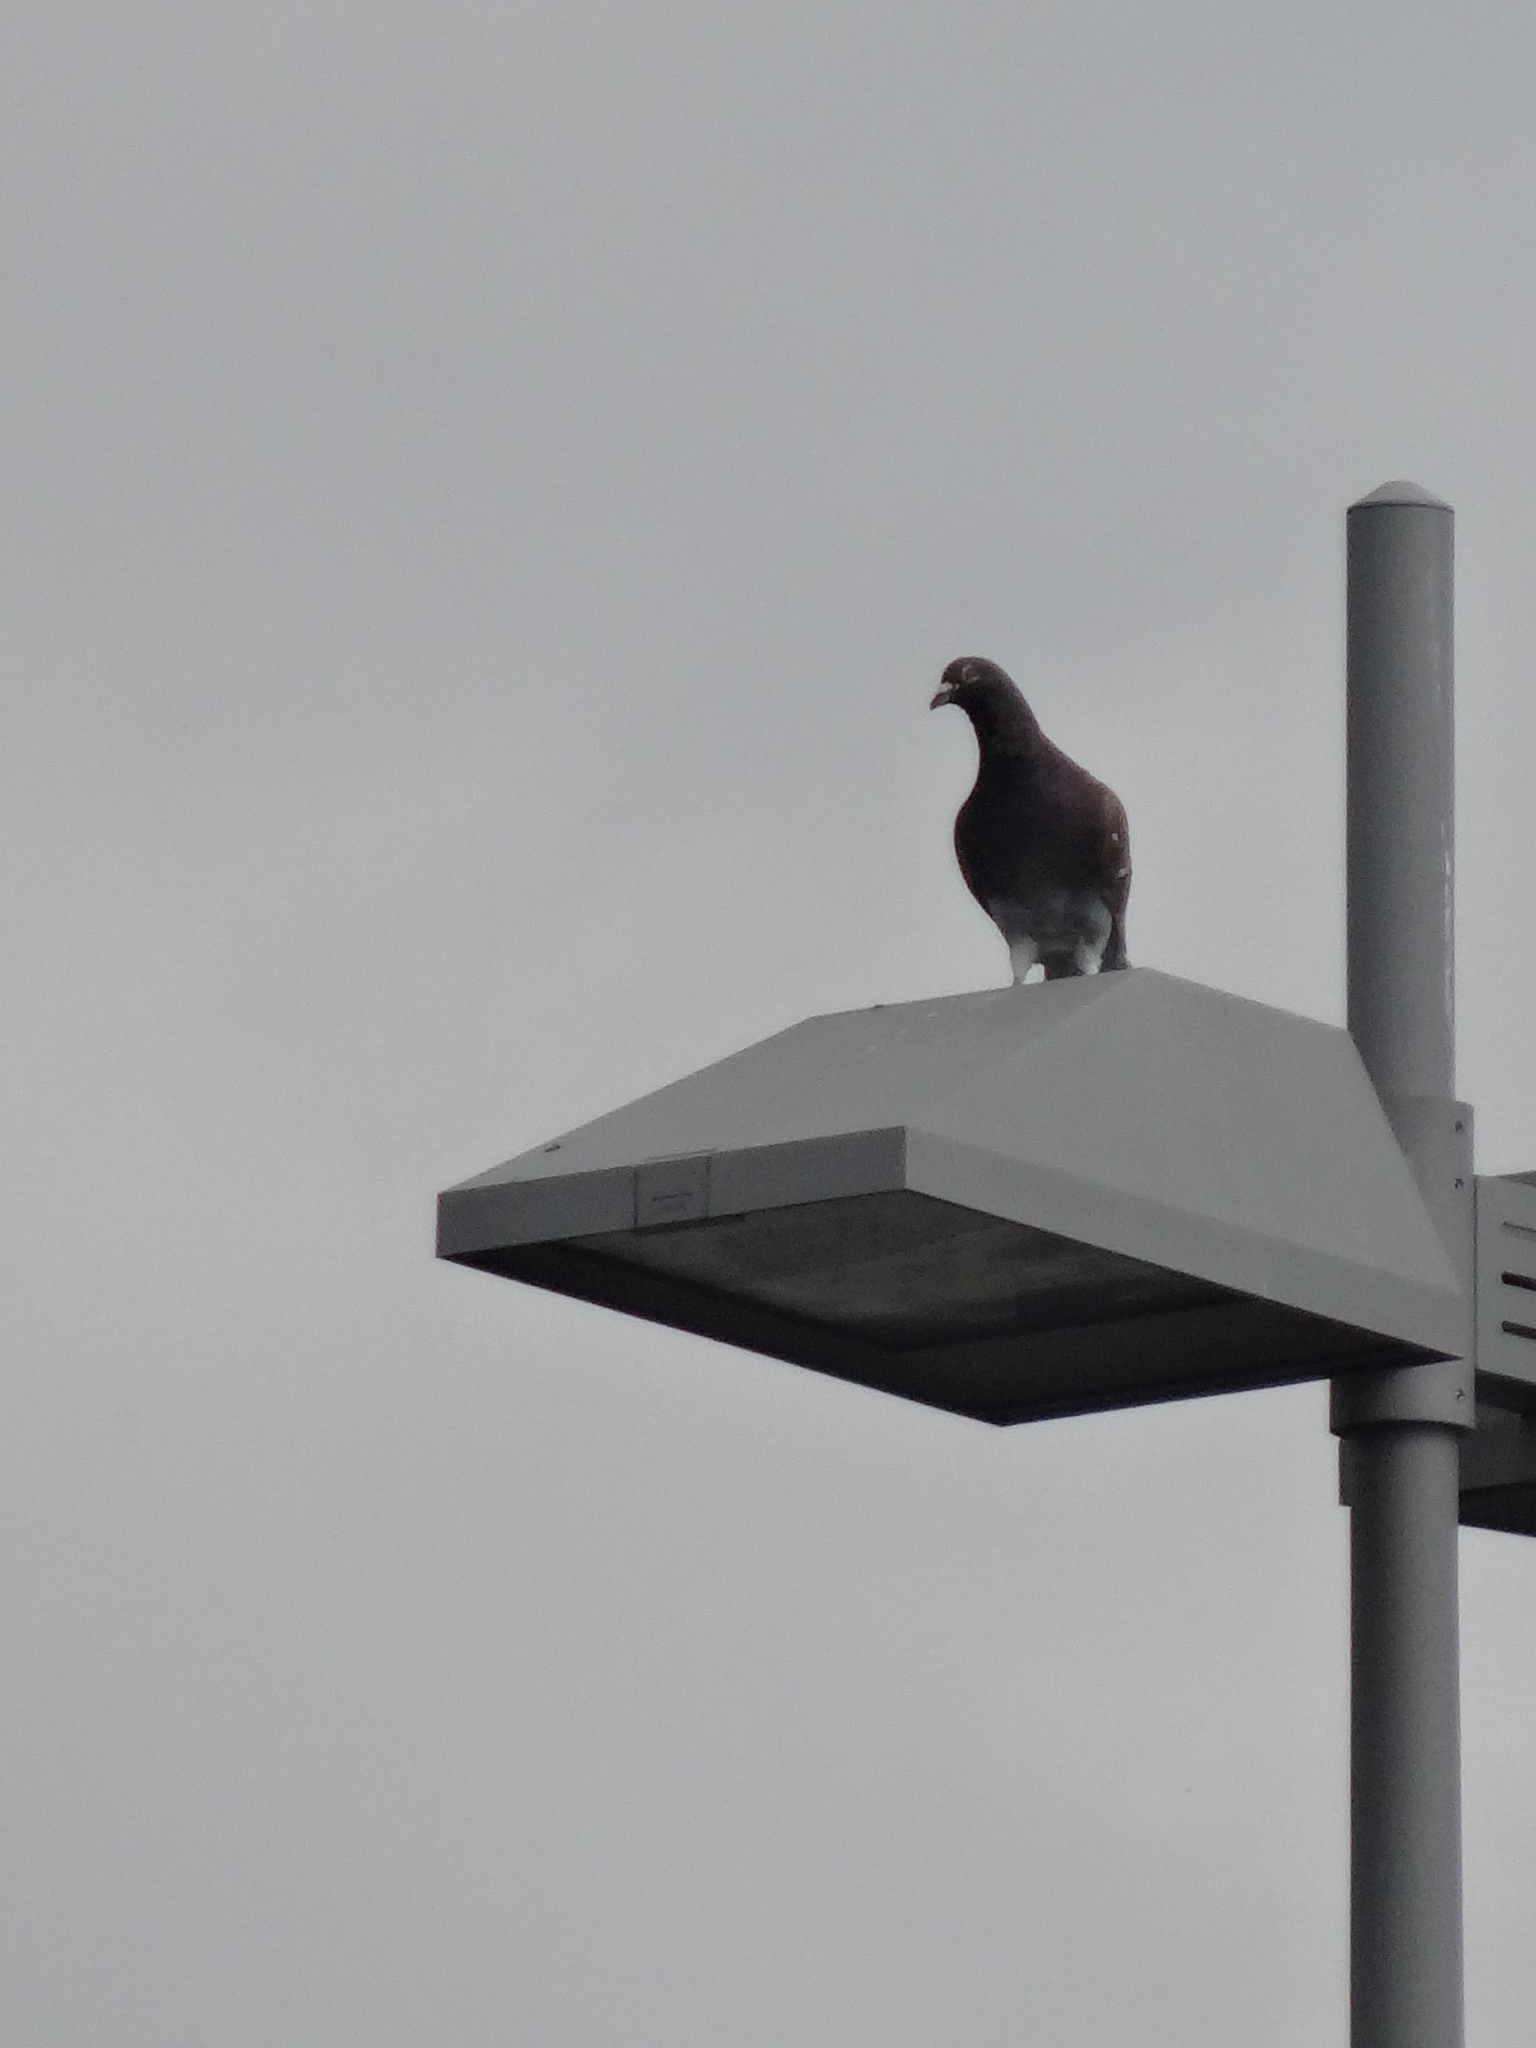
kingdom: Animalia
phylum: Chordata
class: Aves
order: Columbiformes
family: Columbidae
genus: Columba
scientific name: Columba livia
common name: Rock pigeon
